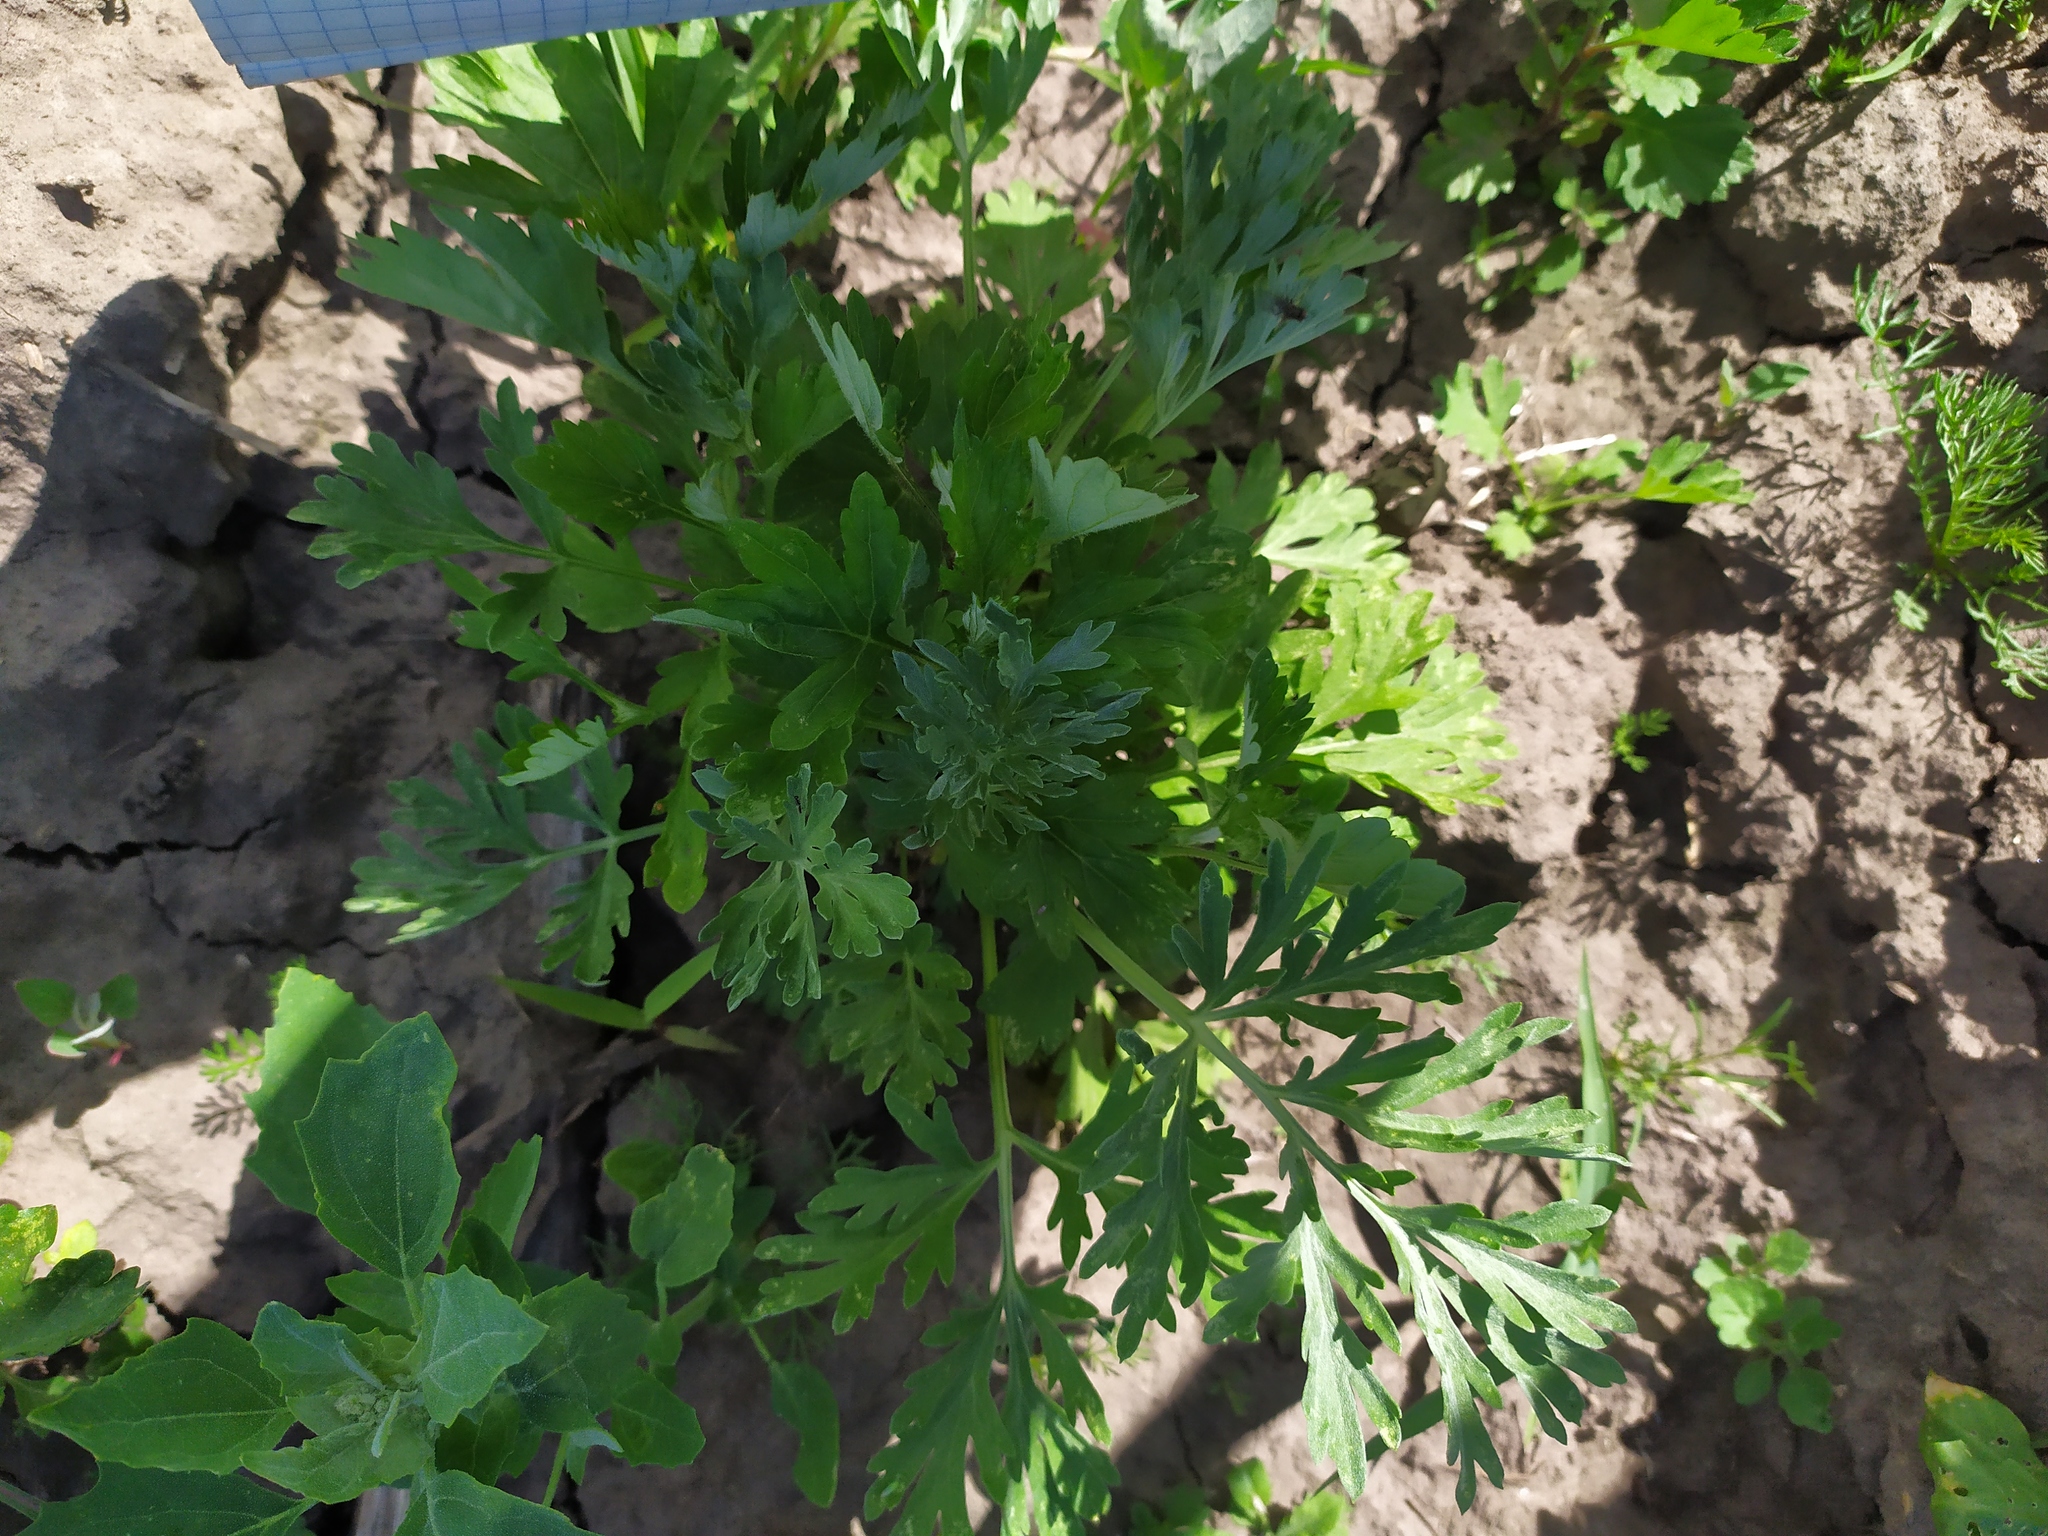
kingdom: Plantae
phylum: Tracheophyta
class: Magnoliopsida
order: Asterales
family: Asteraceae
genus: Artemisia
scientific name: Artemisia absinthium
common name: Wormwood
